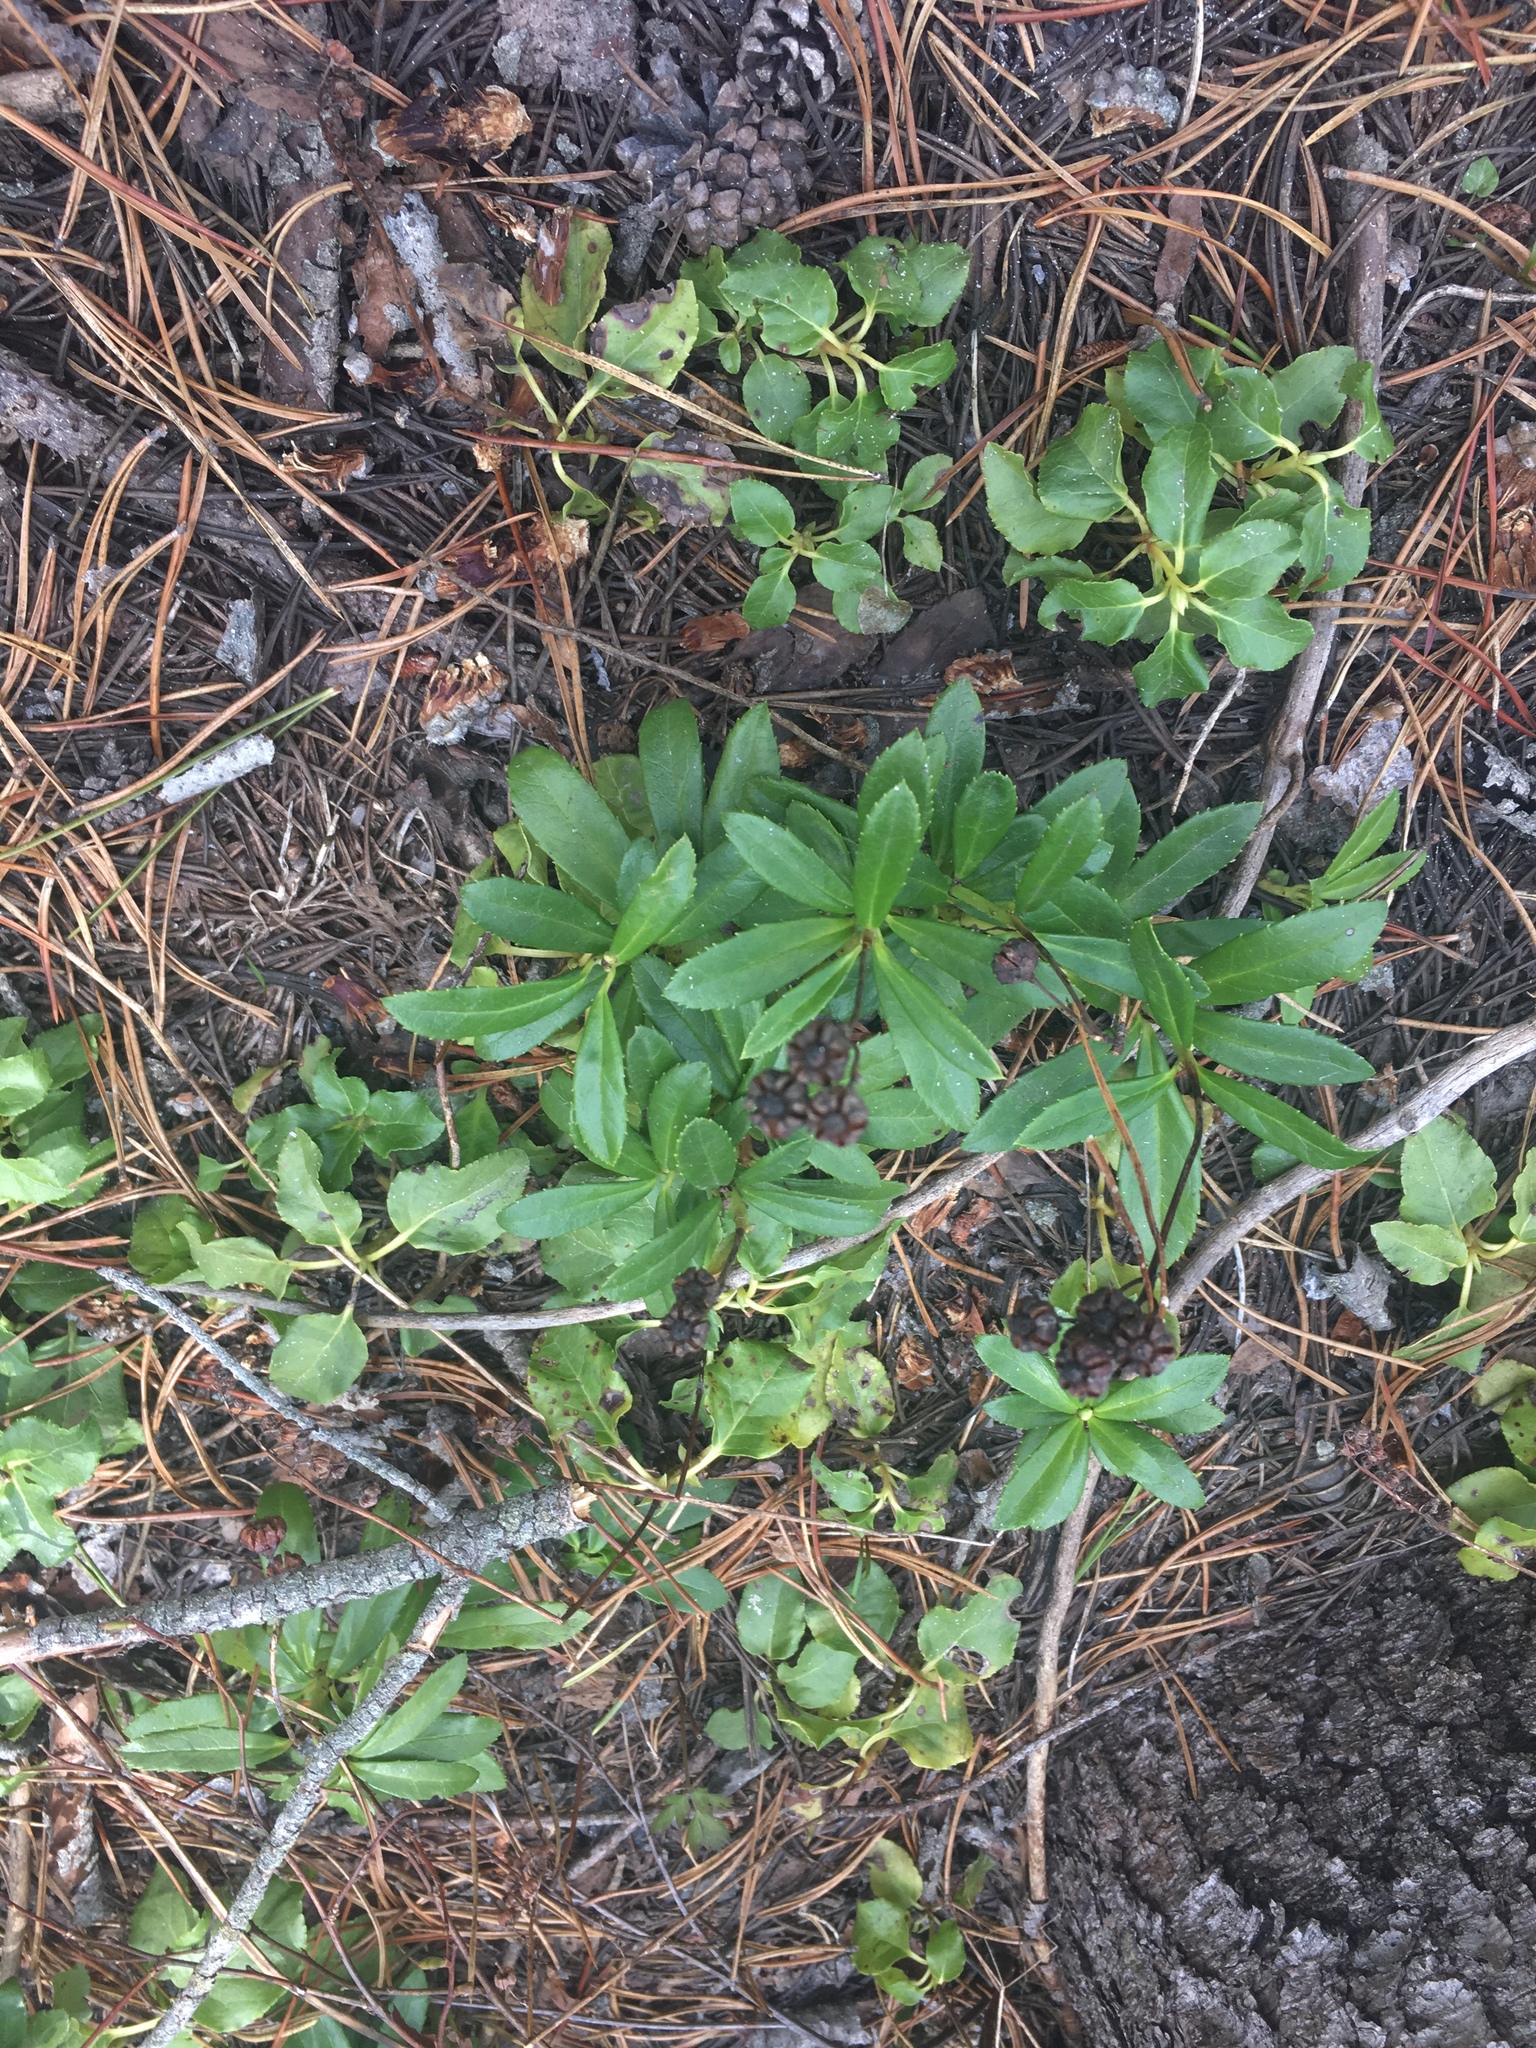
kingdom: Plantae
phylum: Tracheophyta
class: Magnoliopsida
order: Ericales
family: Ericaceae
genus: Chimaphila
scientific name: Chimaphila umbellata
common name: Pipsissewa
